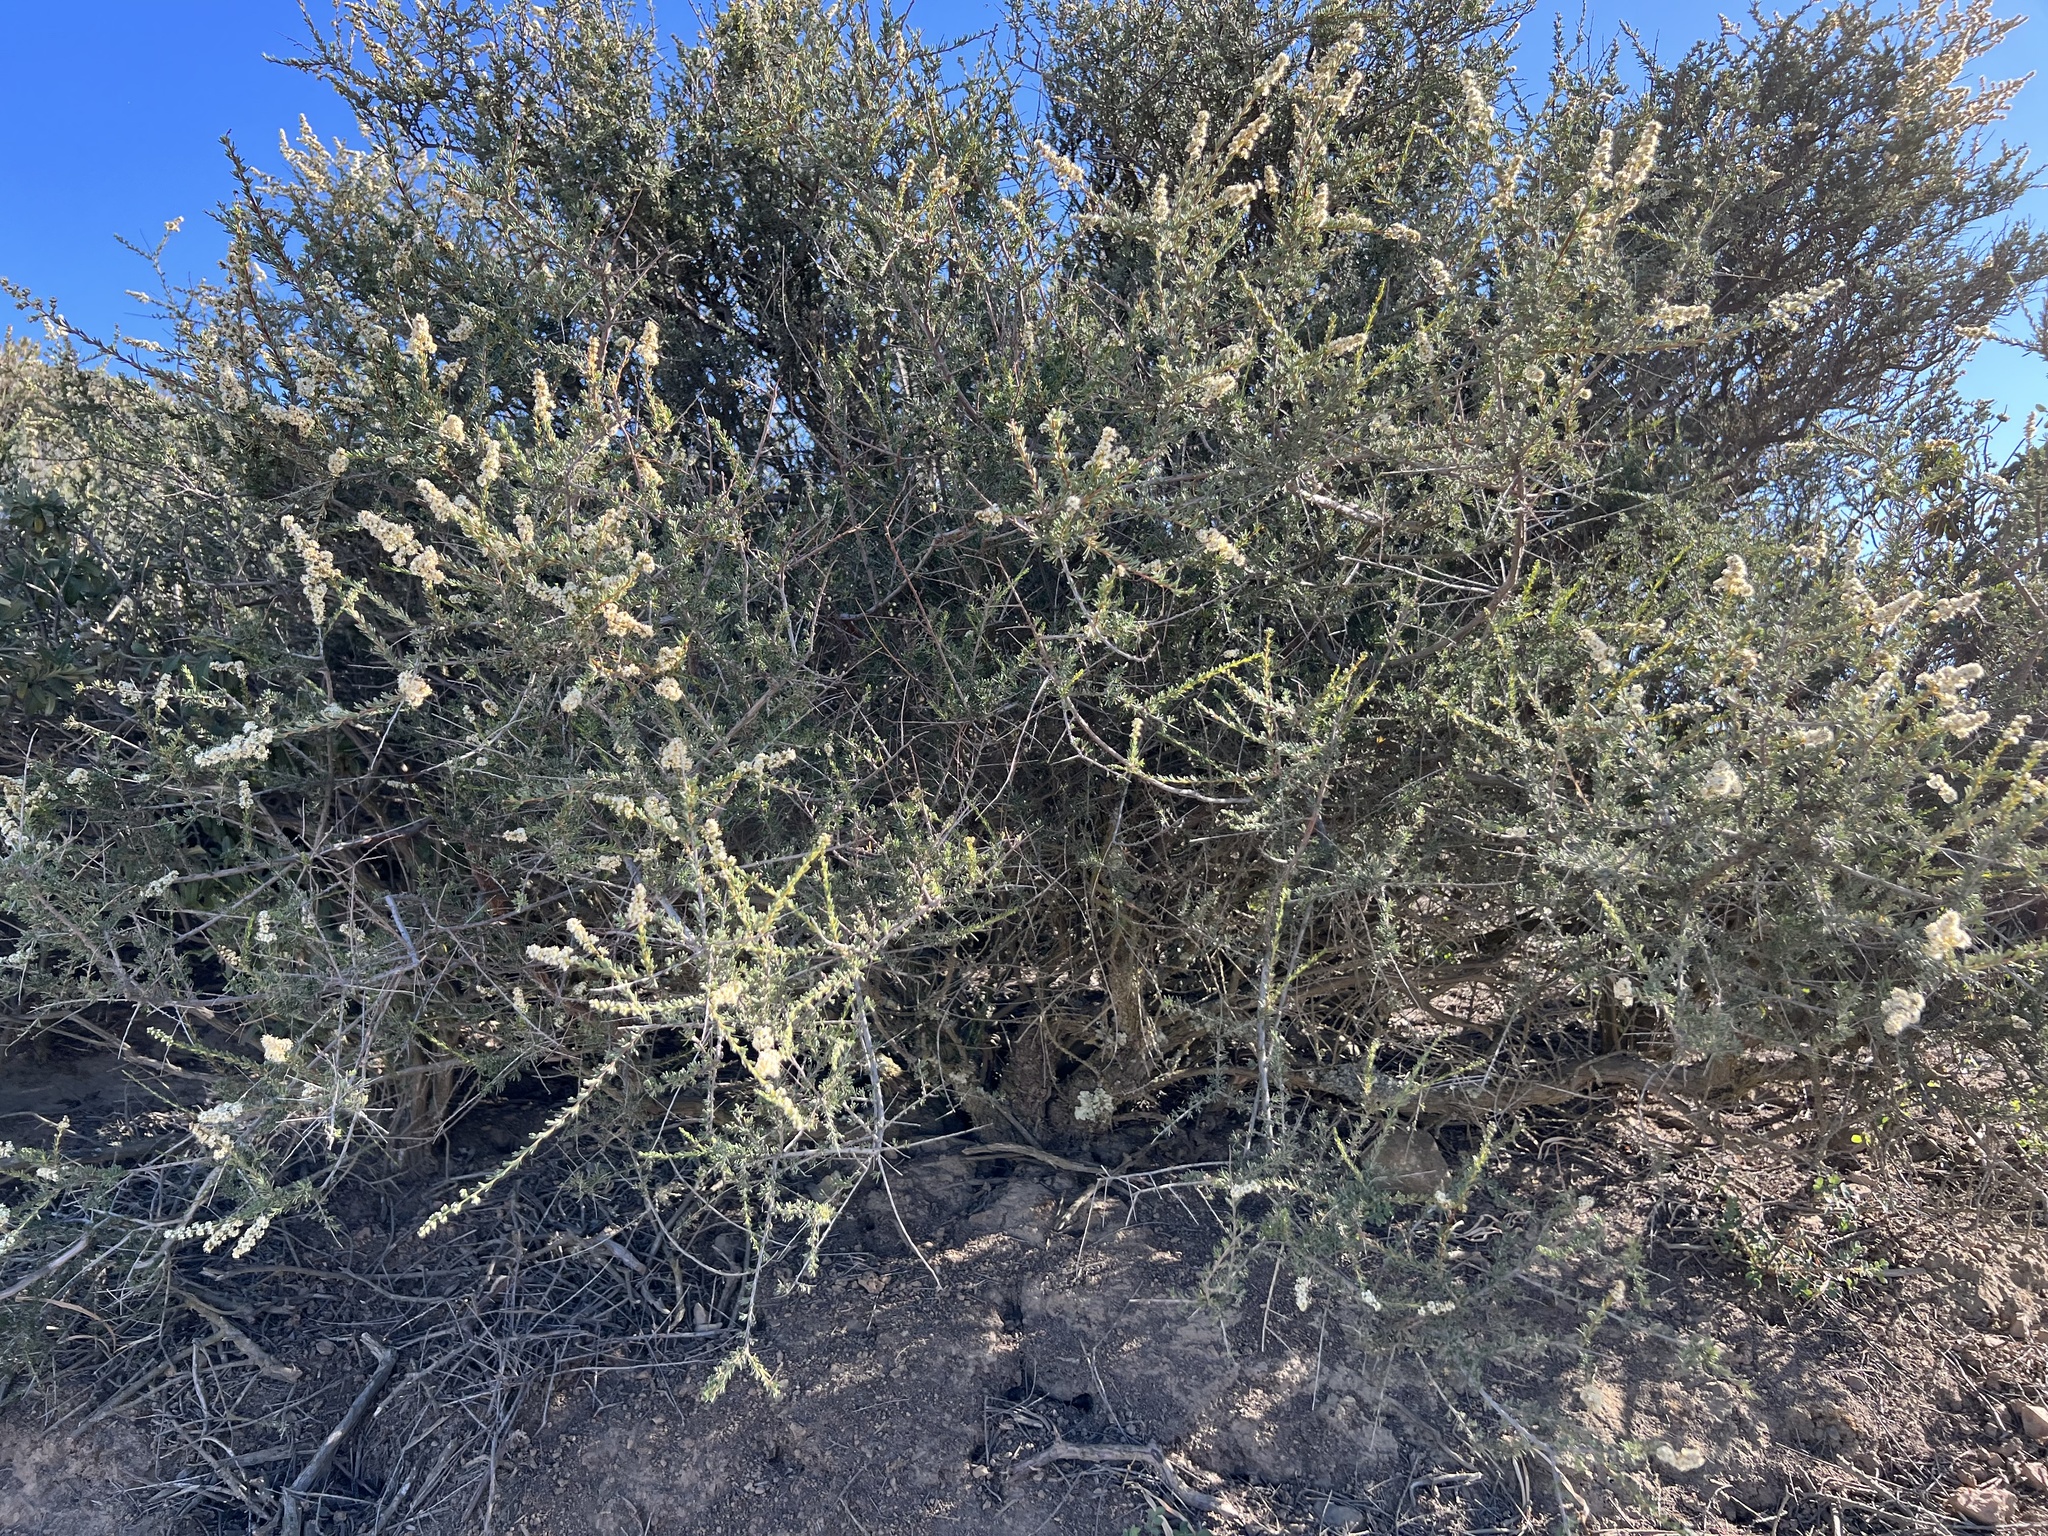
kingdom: Plantae
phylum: Tracheophyta
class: Magnoliopsida
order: Rosales
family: Rosaceae
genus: Adenostoma
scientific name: Adenostoma fasciculatum
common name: Chamise
